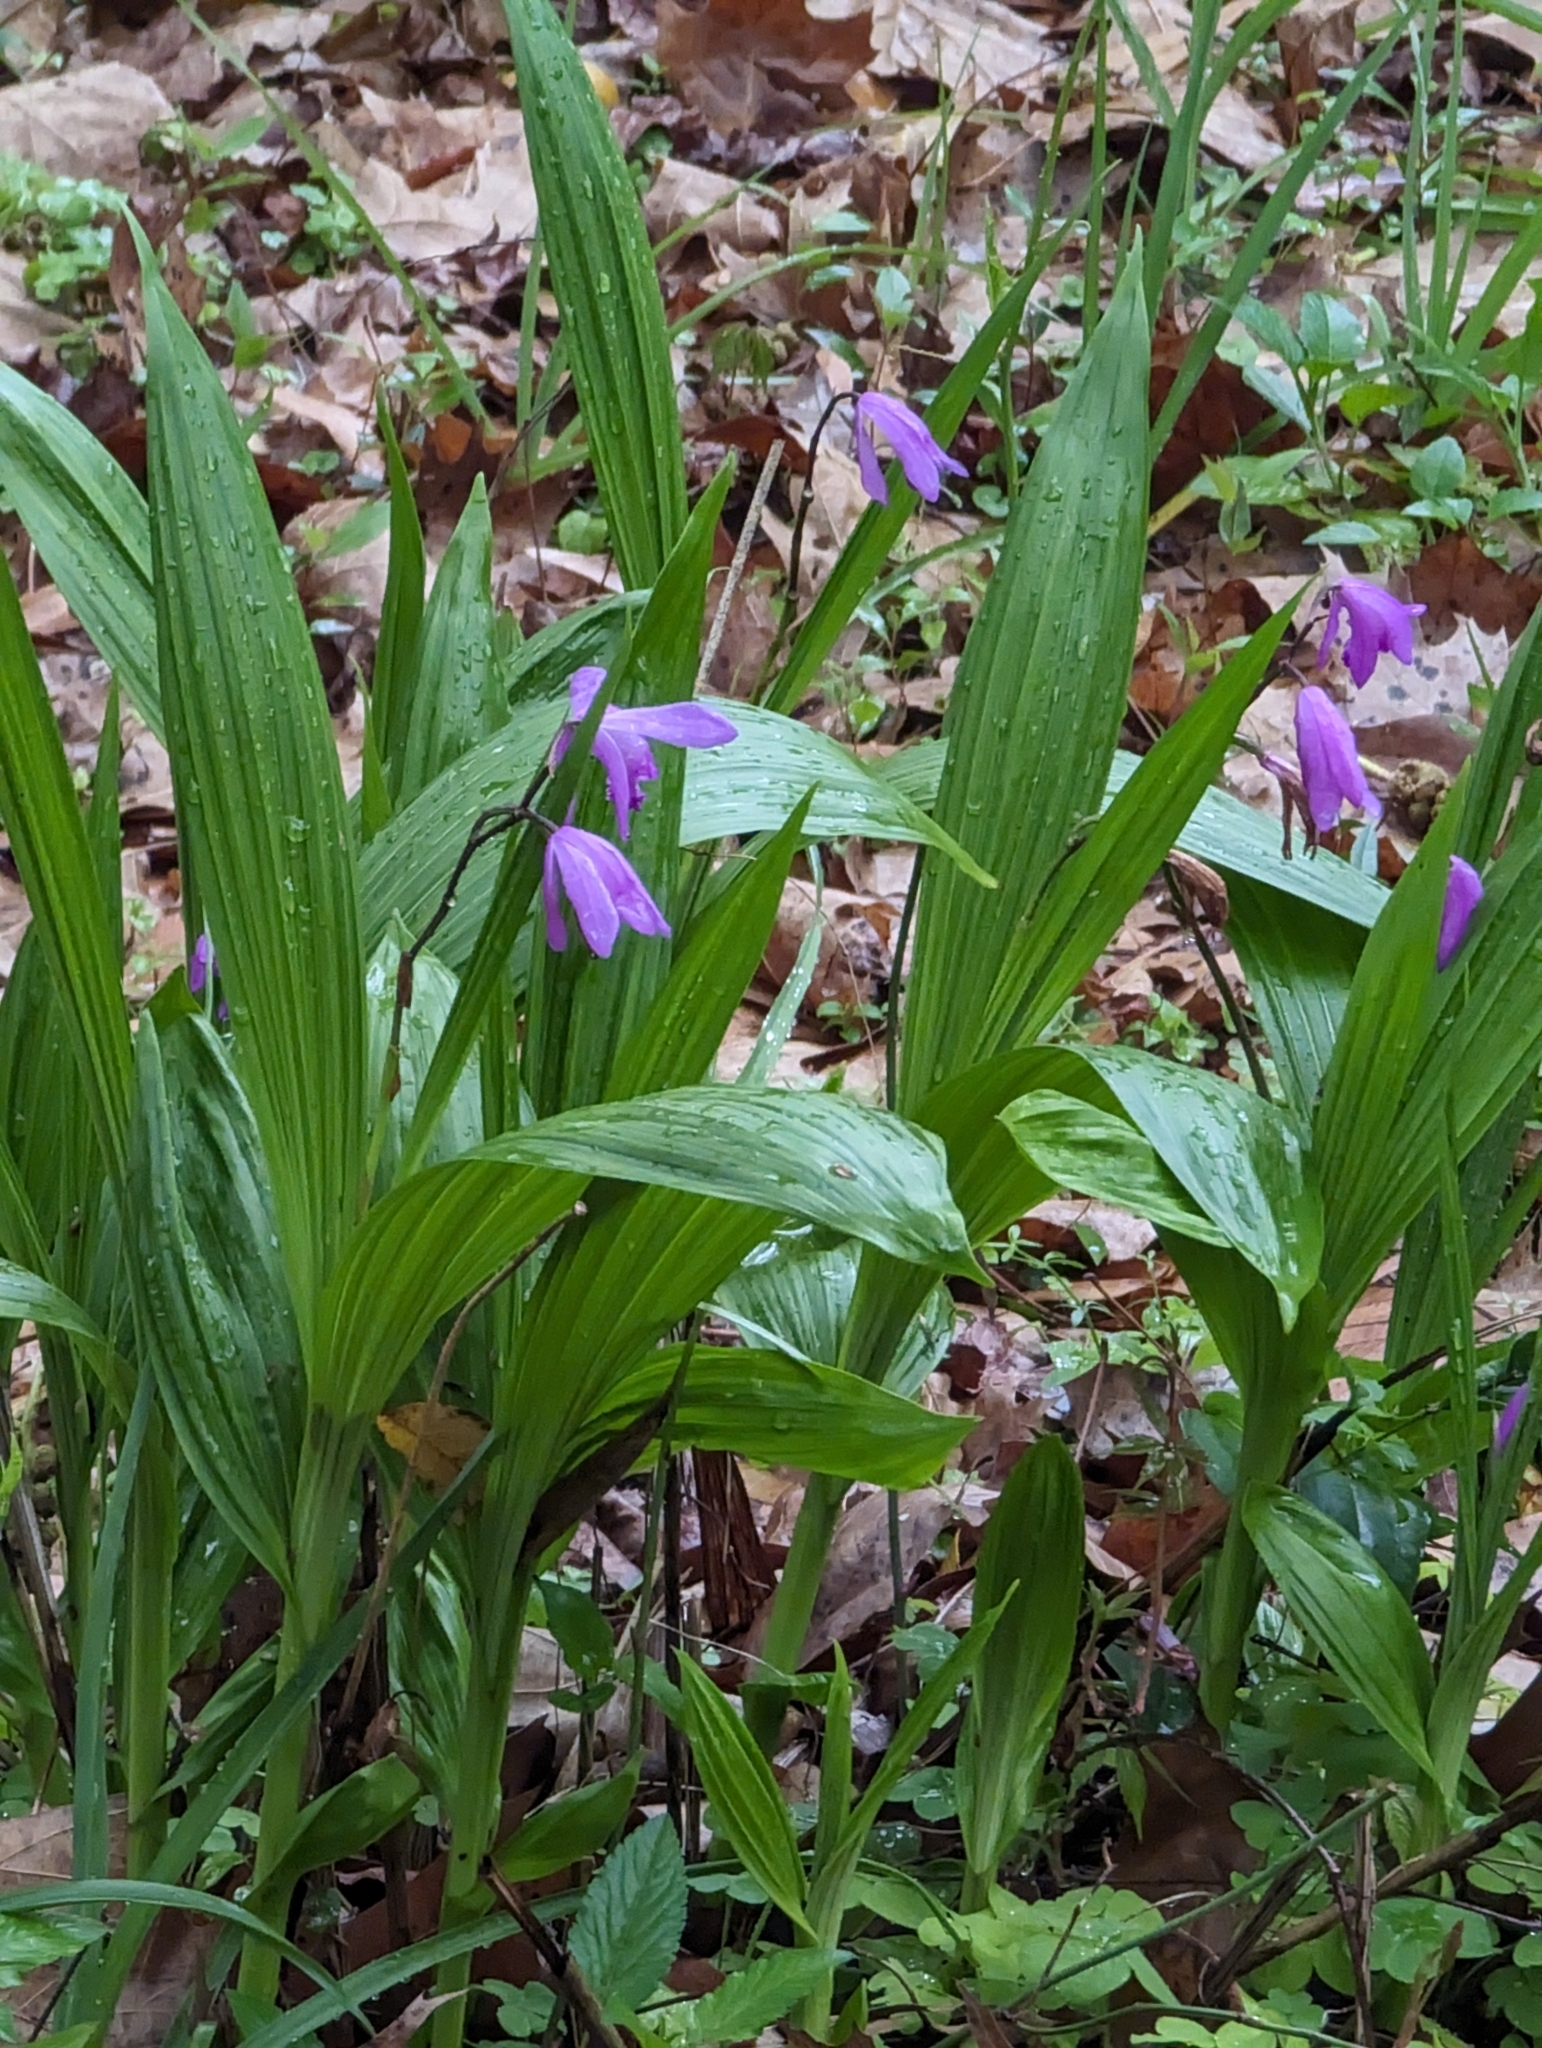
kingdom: Plantae
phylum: Tracheophyta
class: Liliopsida
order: Asparagales
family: Orchidaceae
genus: Bletilla
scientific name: Bletilla striata
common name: Hyacinth orchid
